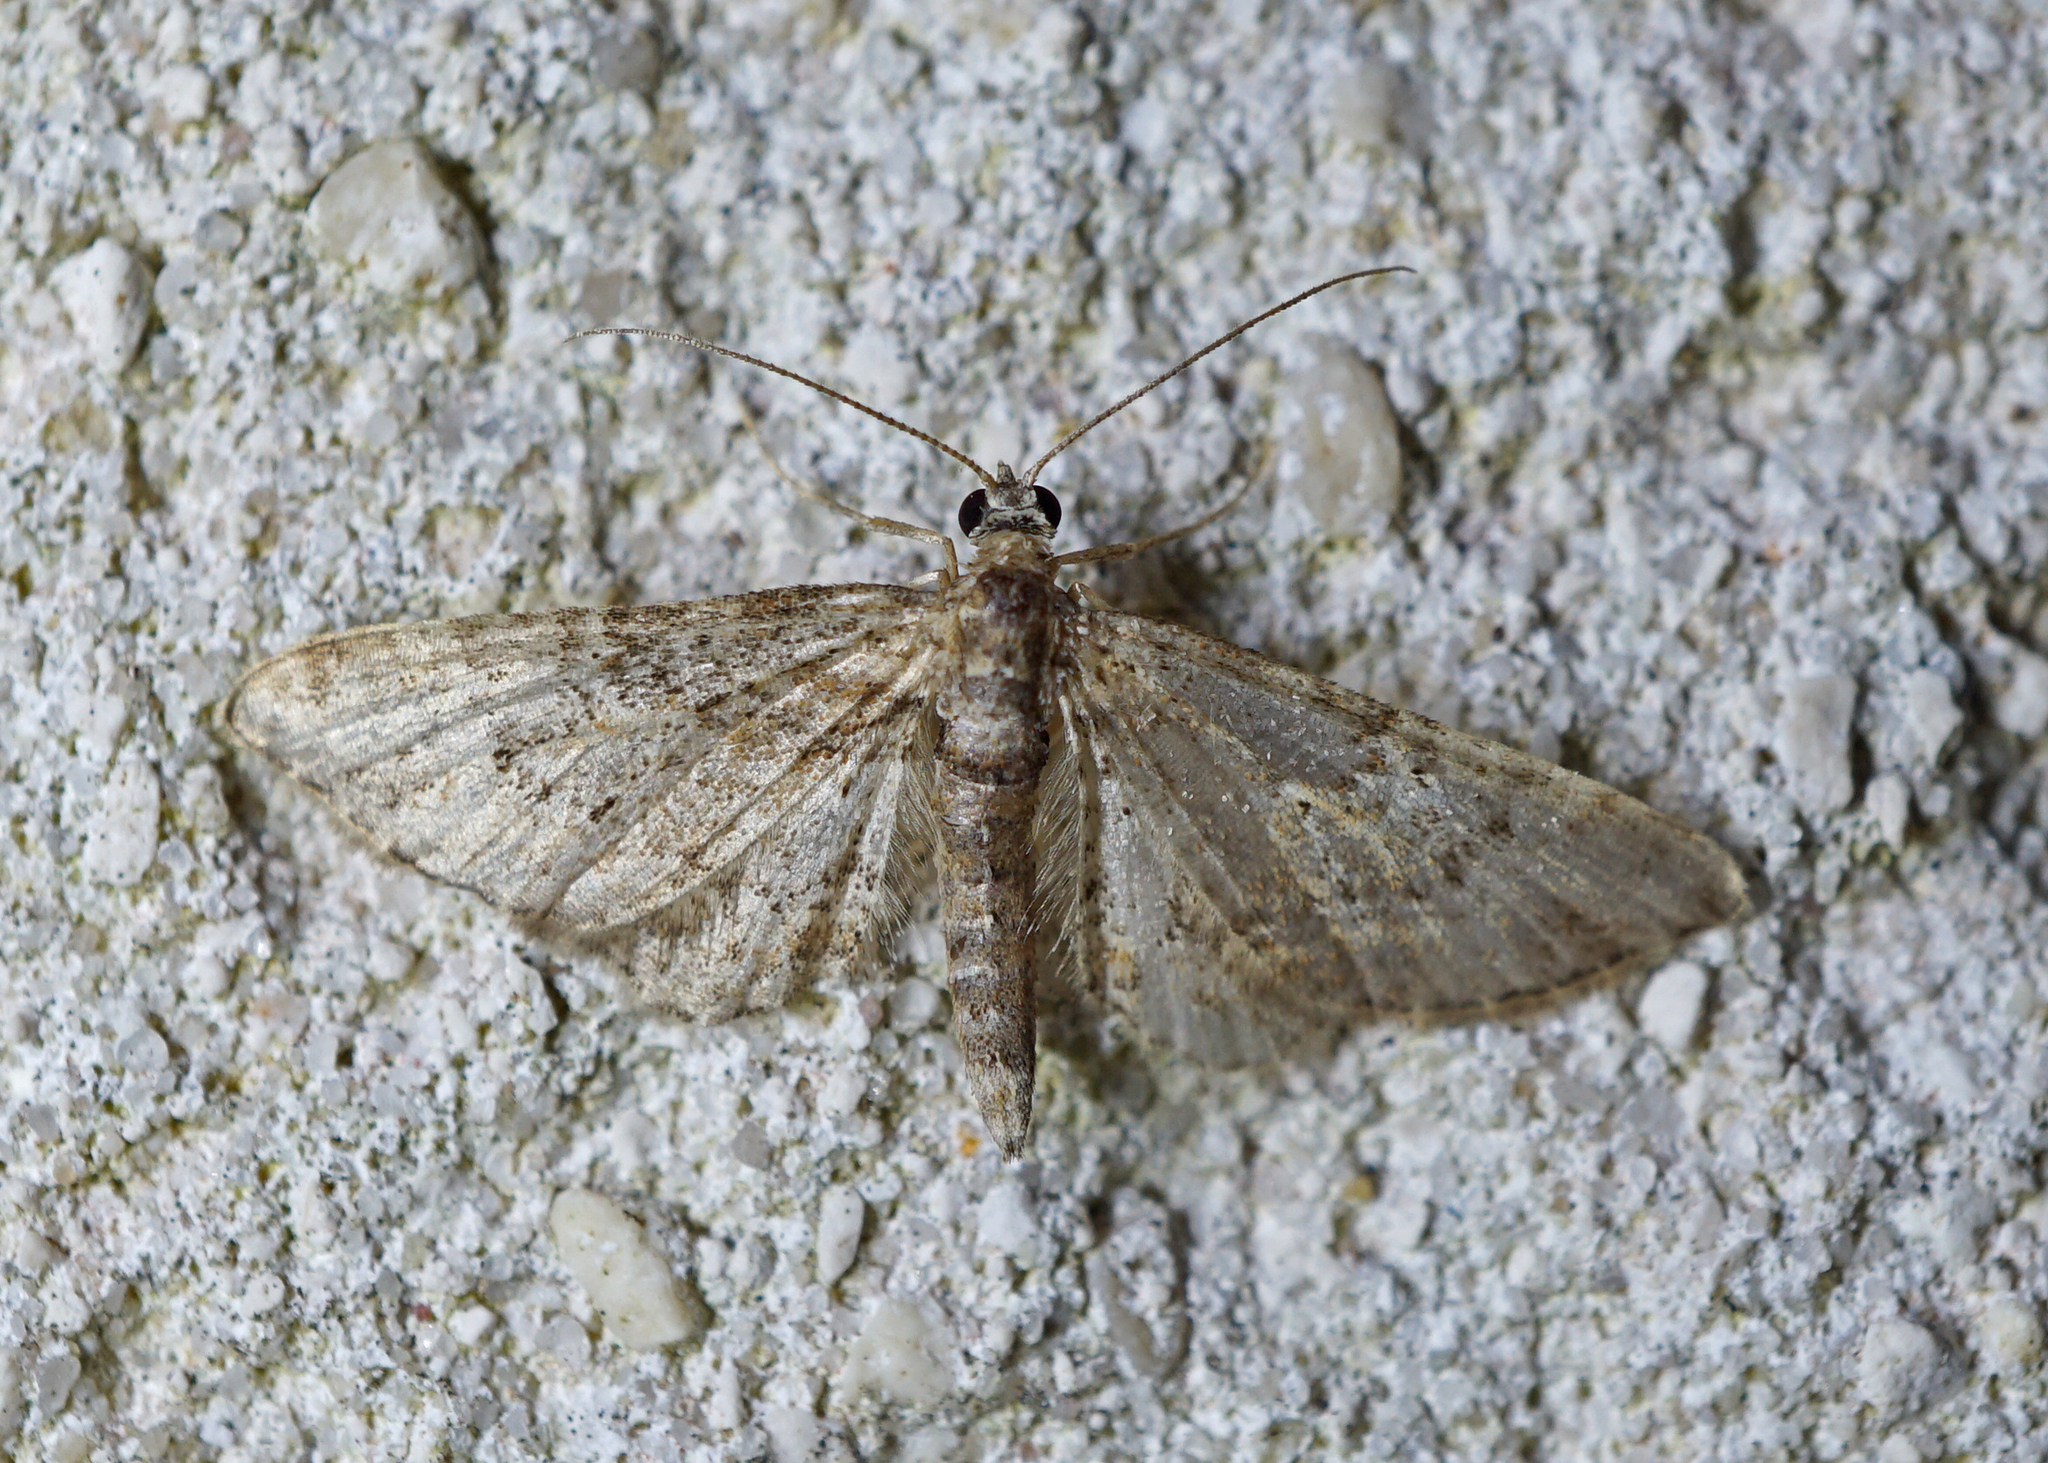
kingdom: Animalia
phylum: Arthropoda
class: Insecta
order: Lepidoptera
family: Geometridae
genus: Gymnoscelis
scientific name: Gymnoscelis rufifasciata
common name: Double-striped pug
